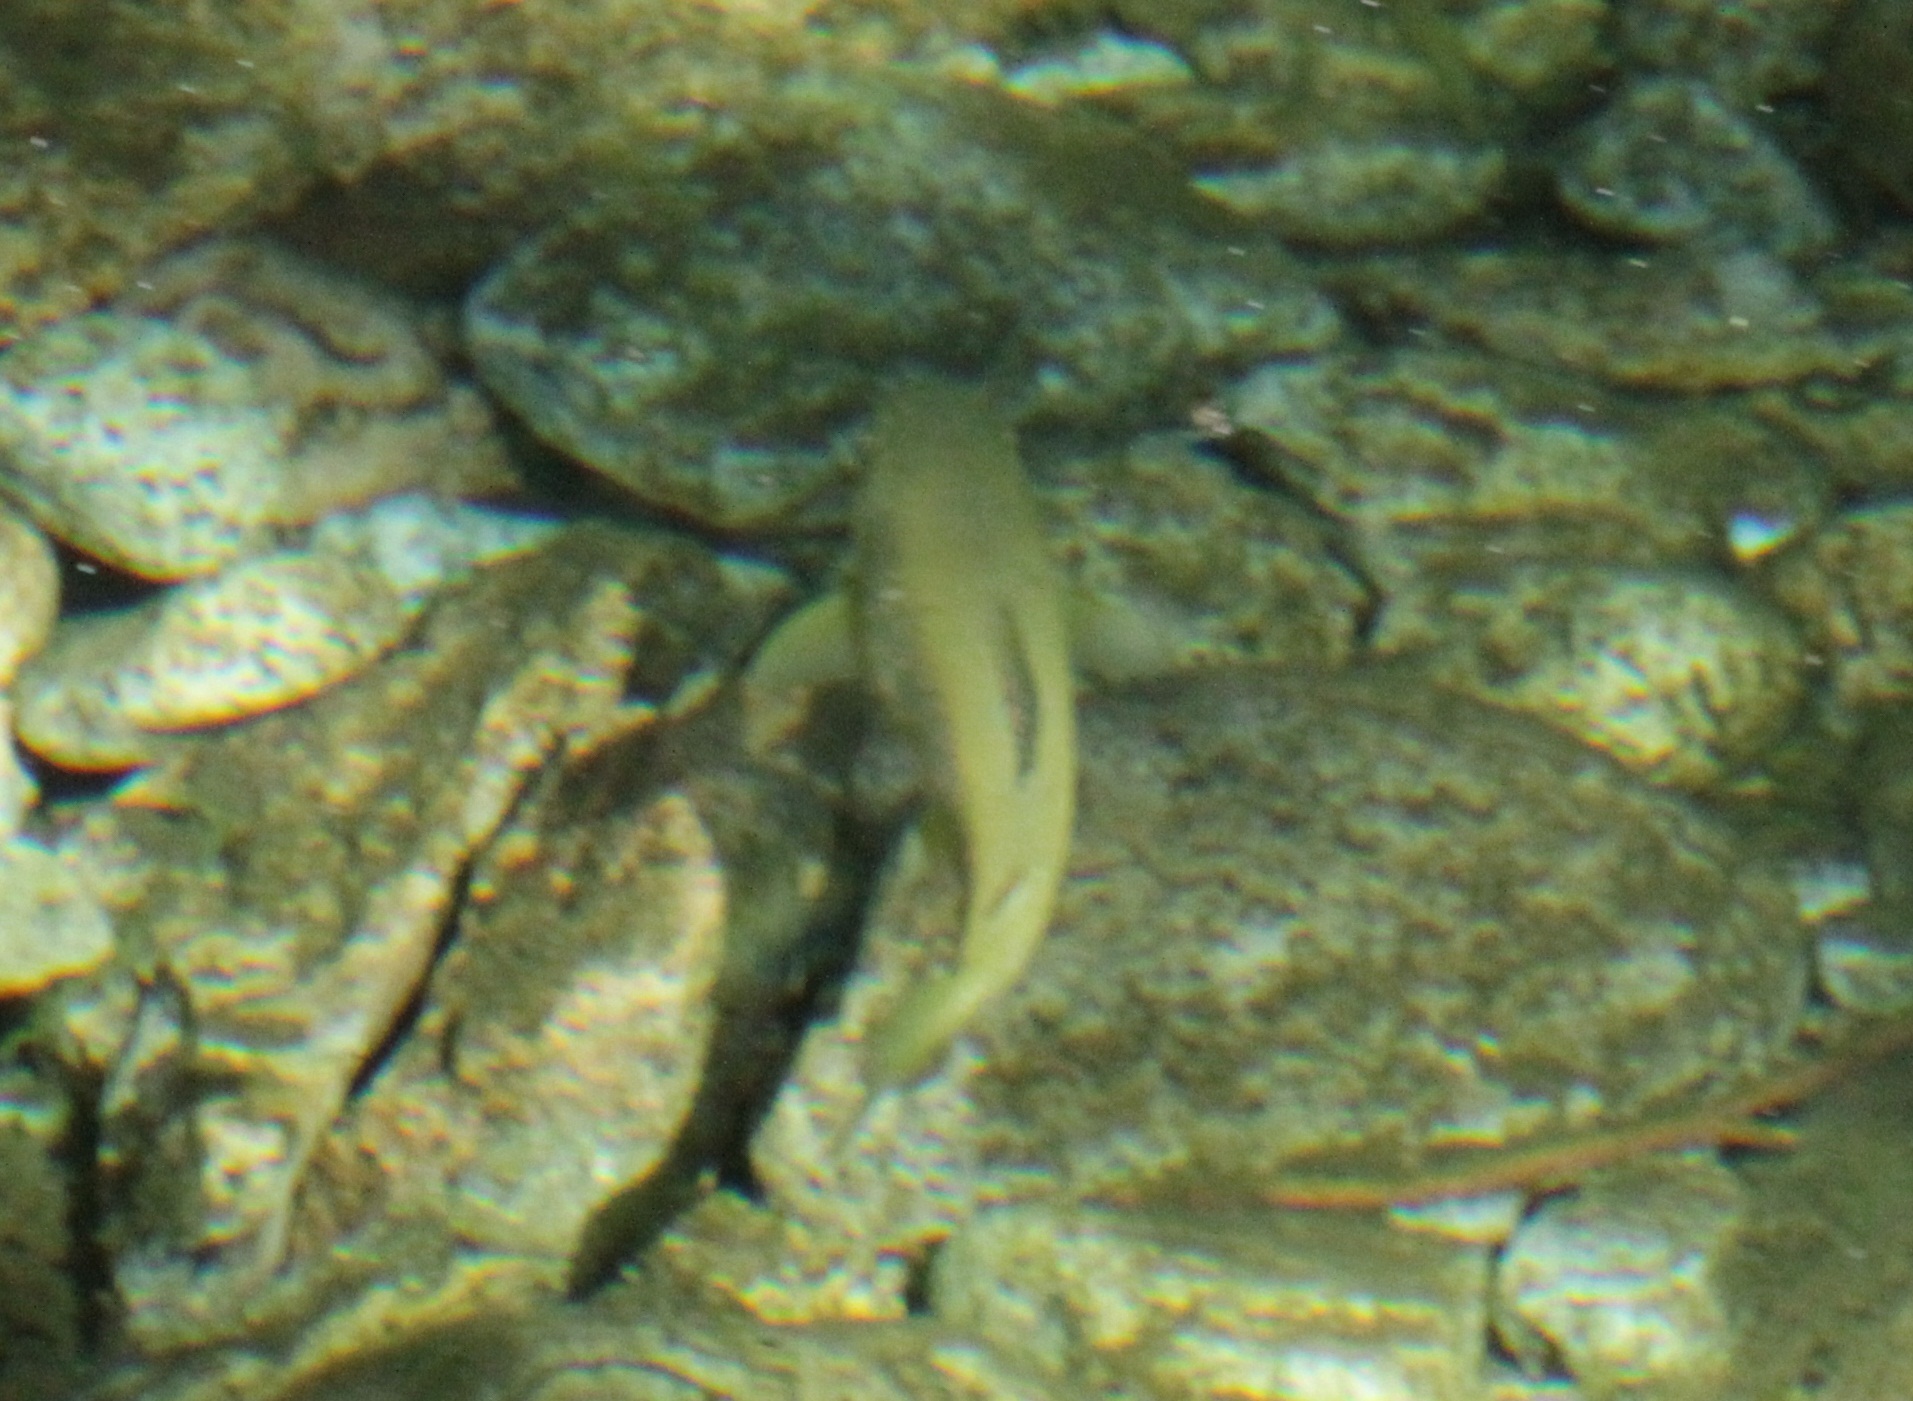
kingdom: Animalia
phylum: Chordata
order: Salmoniformes
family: Salmonidae
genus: Salmo
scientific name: Salmo trutta
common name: Brown trout
